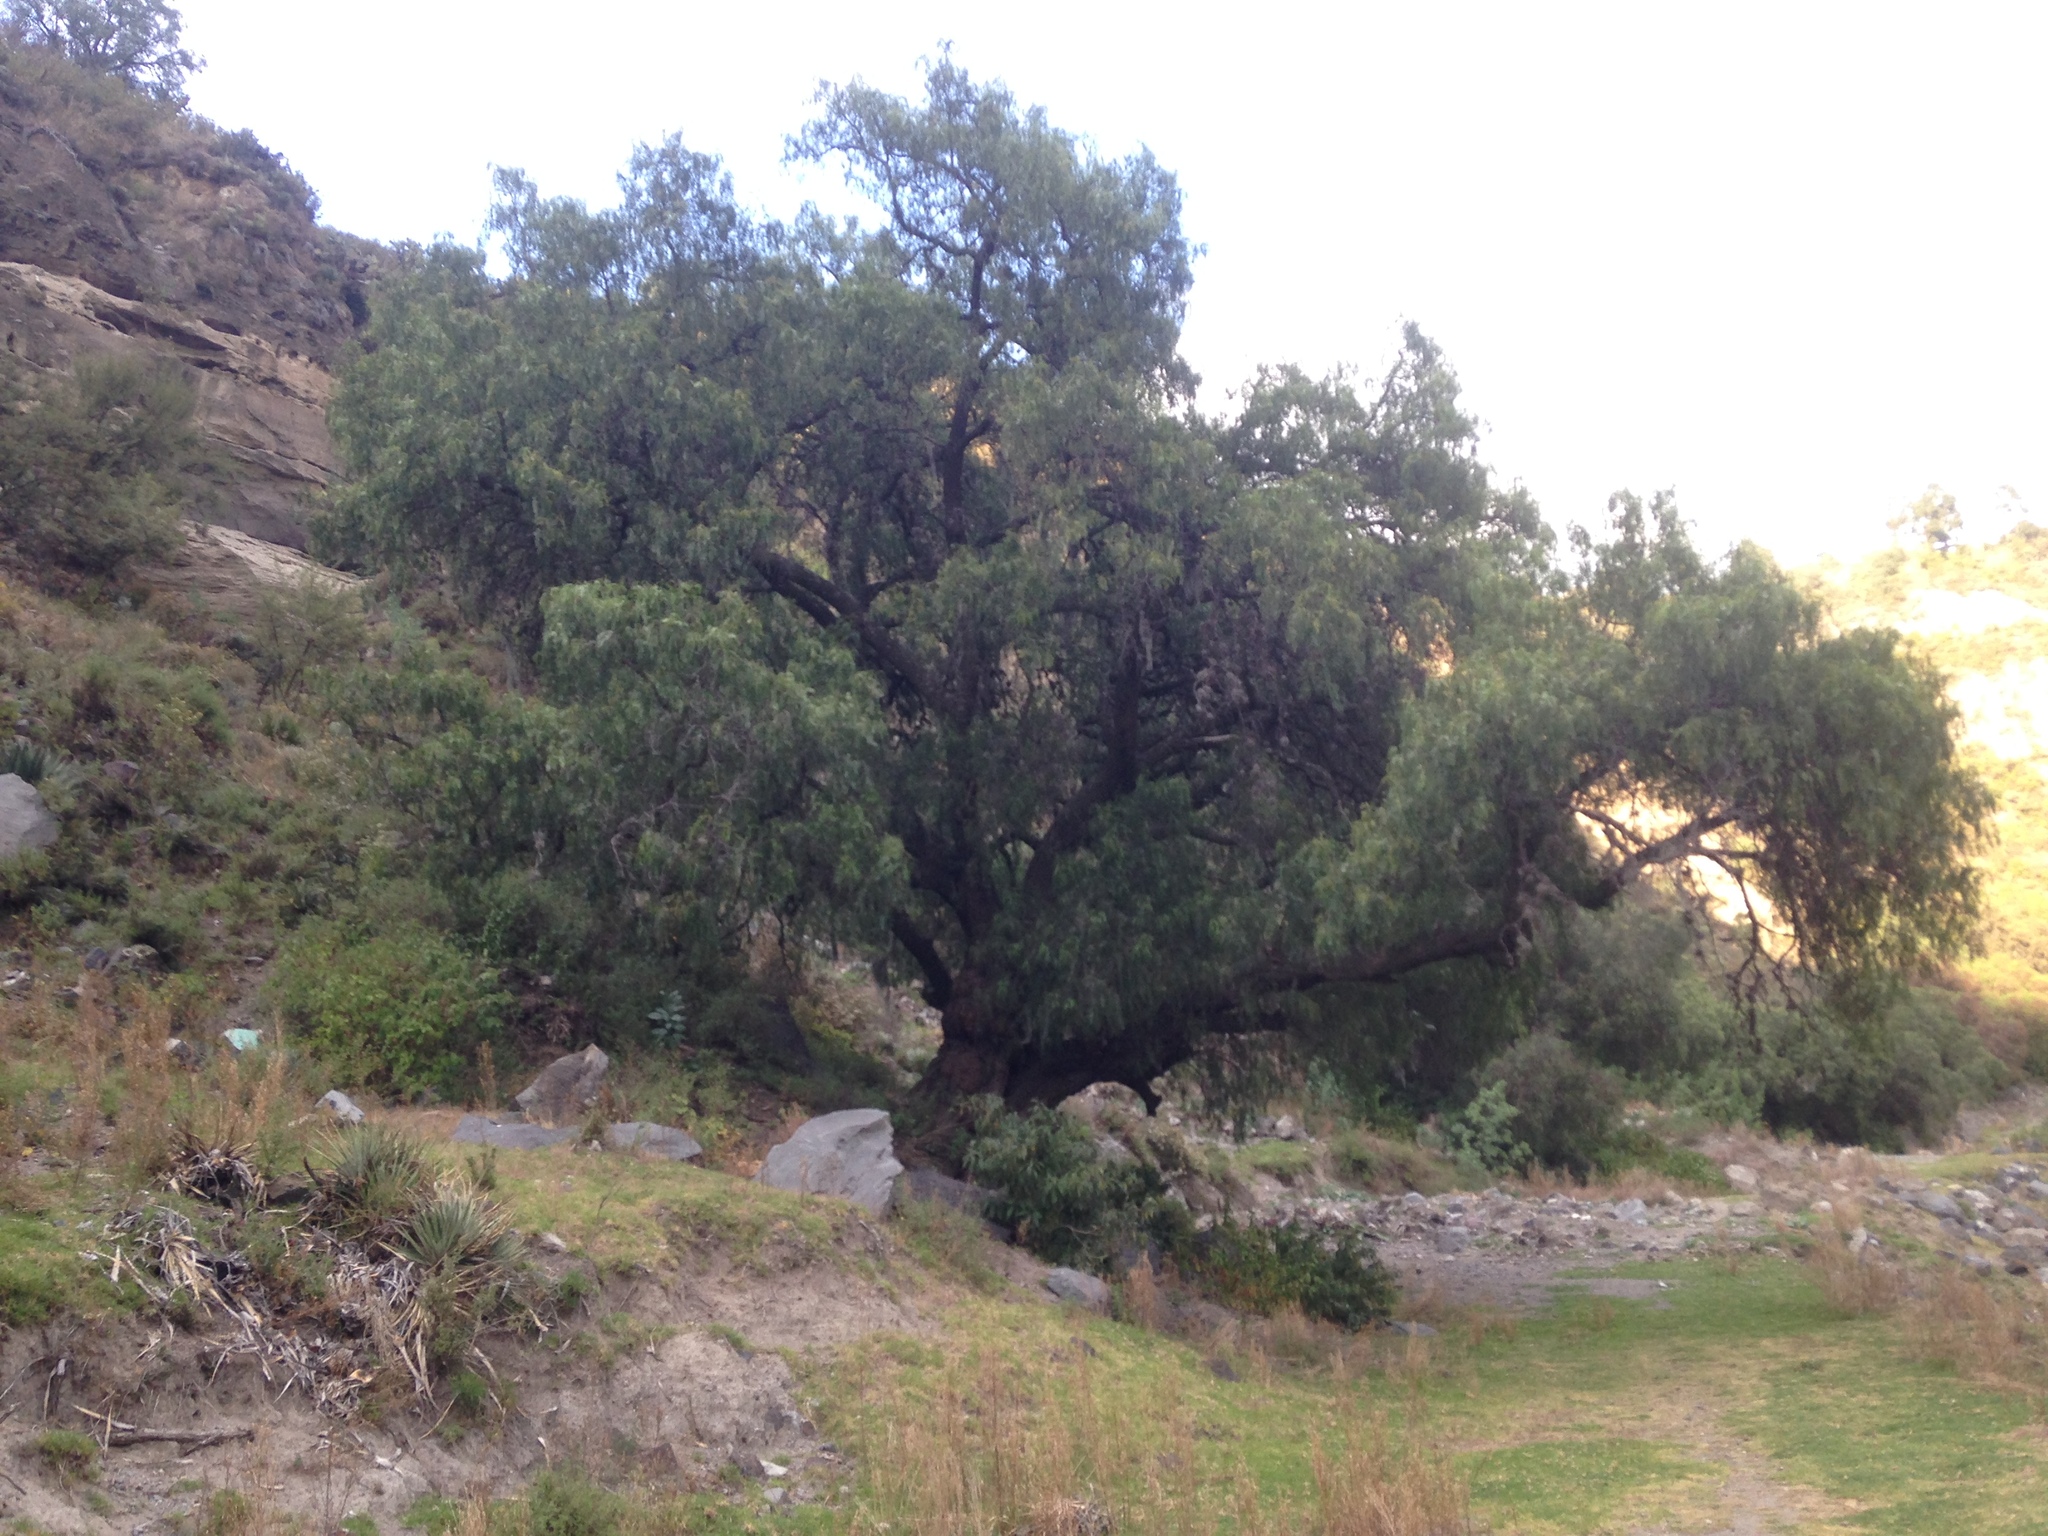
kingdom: Plantae
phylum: Tracheophyta
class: Magnoliopsida
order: Sapindales
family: Anacardiaceae
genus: Schinus
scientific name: Schinus molle
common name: Peruvian peppertree
